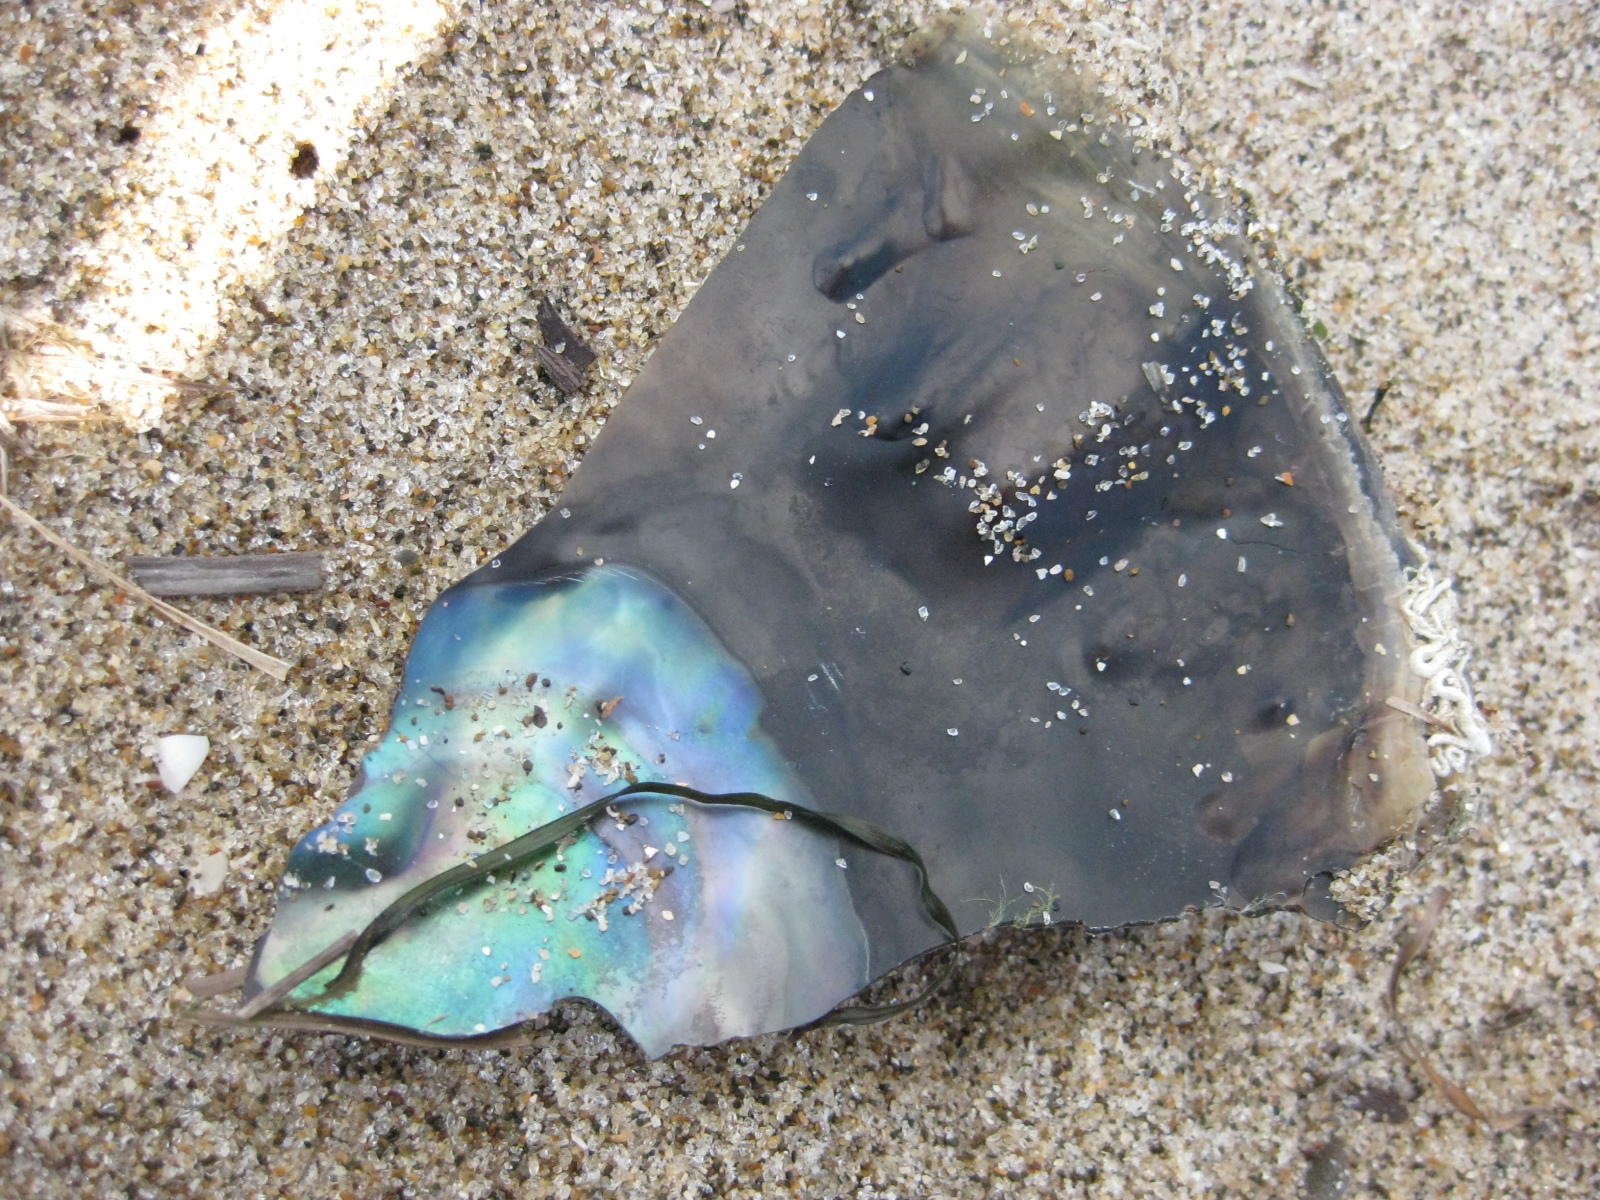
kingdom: Animalia
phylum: Mollusca
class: Bivalvia
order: Ostreida
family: Pinnidae
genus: Atrina
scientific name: Atrina zelandica
